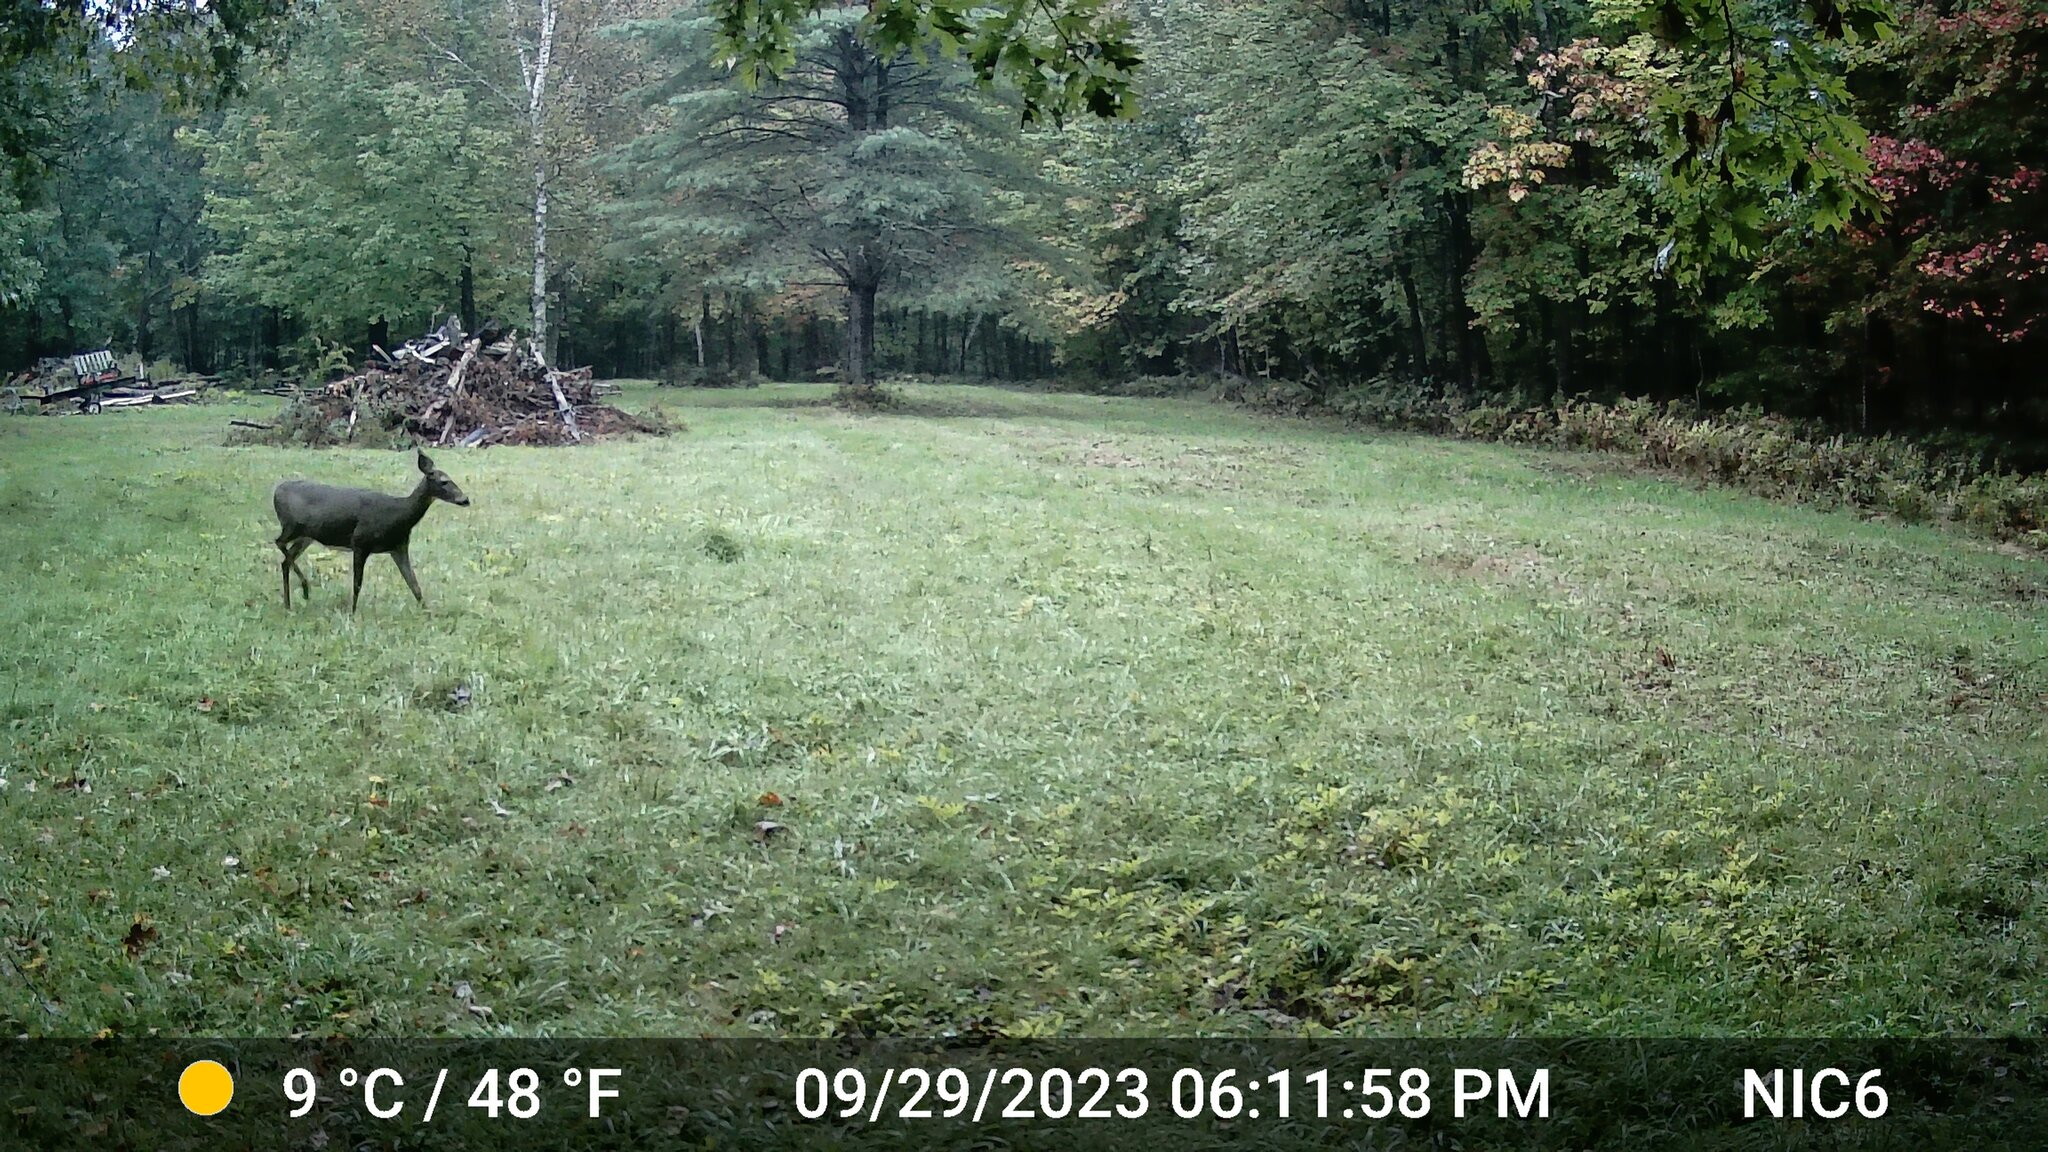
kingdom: Animalia
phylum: Chordata
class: Mammalia
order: Artiodactyla
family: Cervidae
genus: Odocoileus
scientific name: Odocoileus virginianus
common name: White-tailed deer
